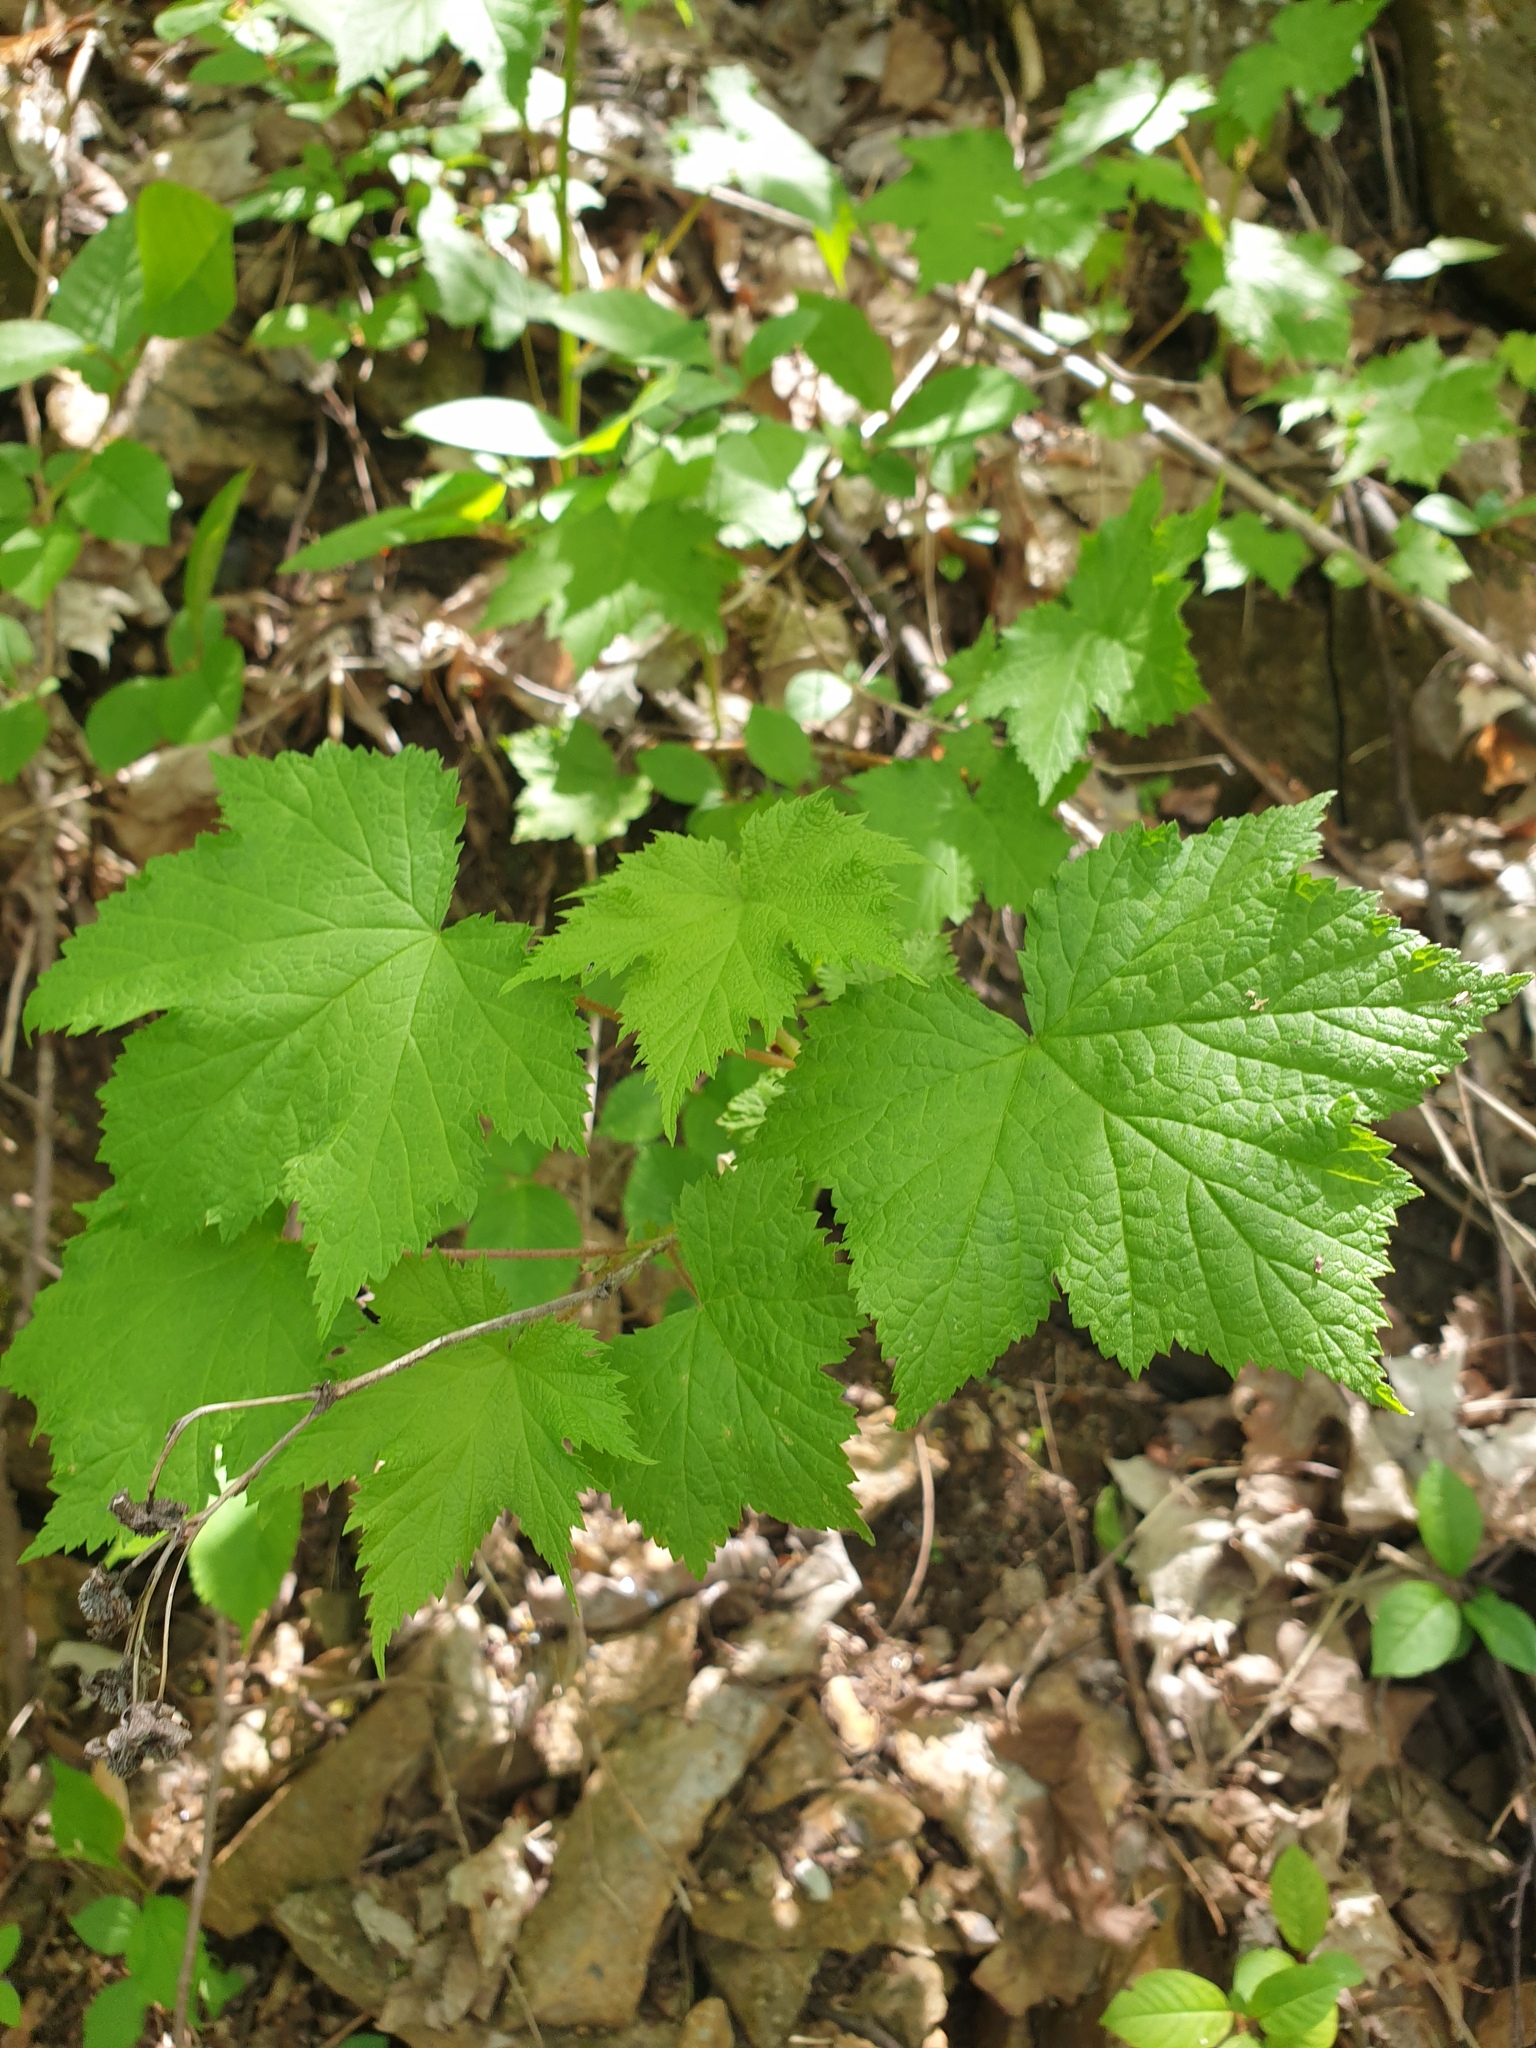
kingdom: Plantae
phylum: Tracheophyta
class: Magnoliopsida
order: Rosales
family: Rosaceae
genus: Rubus
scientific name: Rubus odoratus
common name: Purple-flowered raspberry
